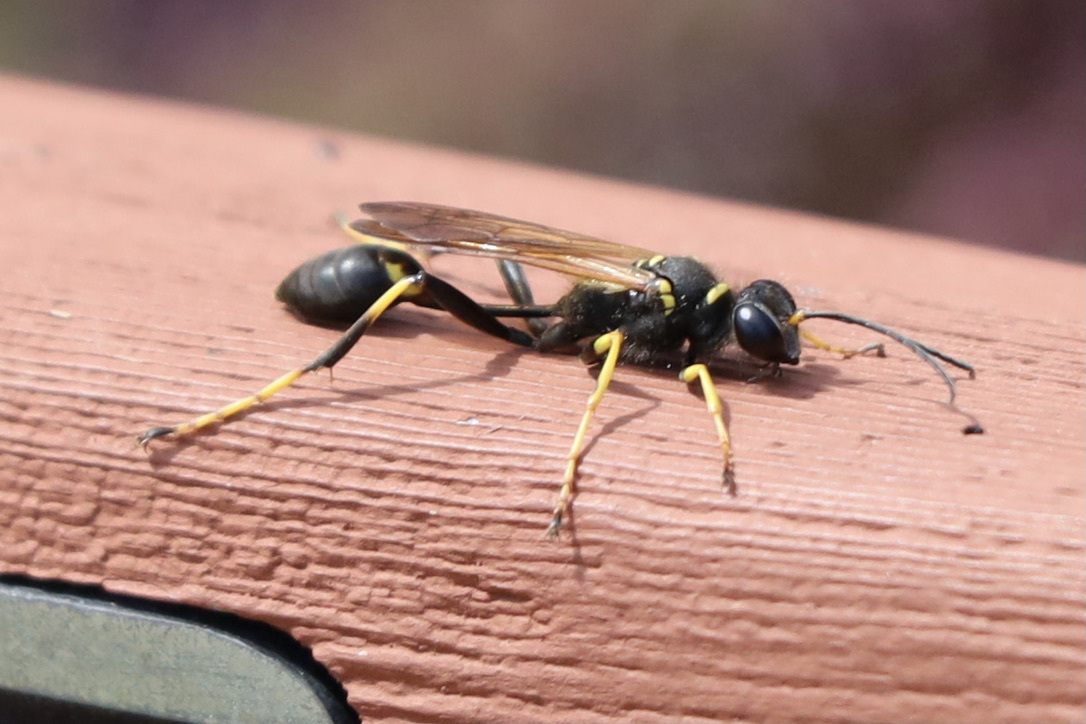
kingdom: Animalia
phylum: Arthropoda
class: Insecta
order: Hymenoptera
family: Sphecidae
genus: Sceliphron
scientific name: Sceliphron caementarium
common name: Mud dauber
